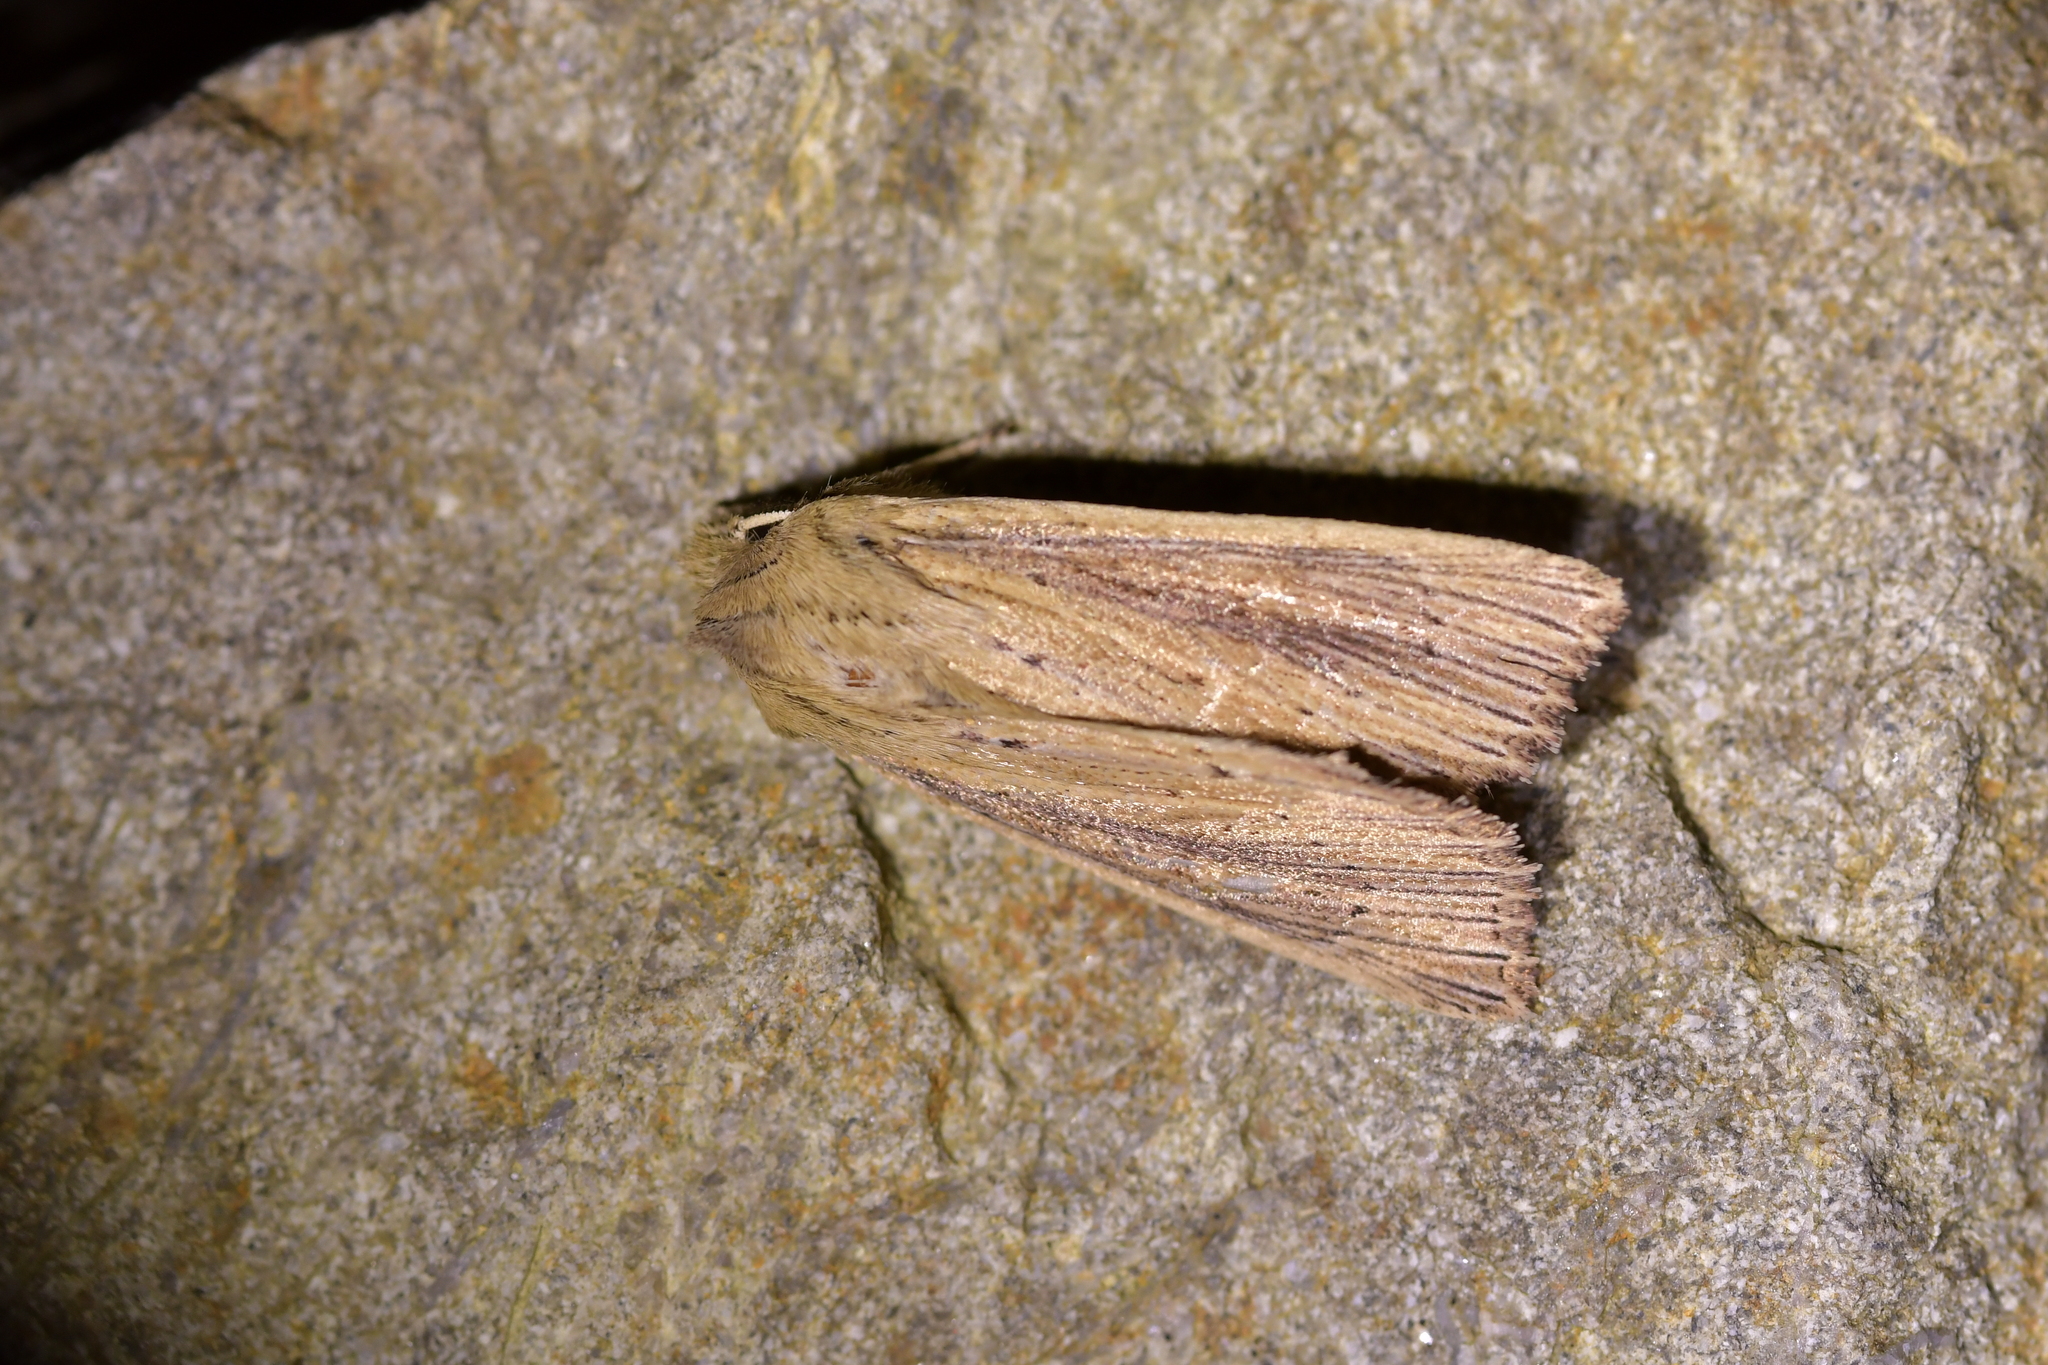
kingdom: Animalia
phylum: Arthropoda
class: Insecta
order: Lepidoptera
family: Noctuidae
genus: Ichneutica
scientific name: Ichneutica arotis
